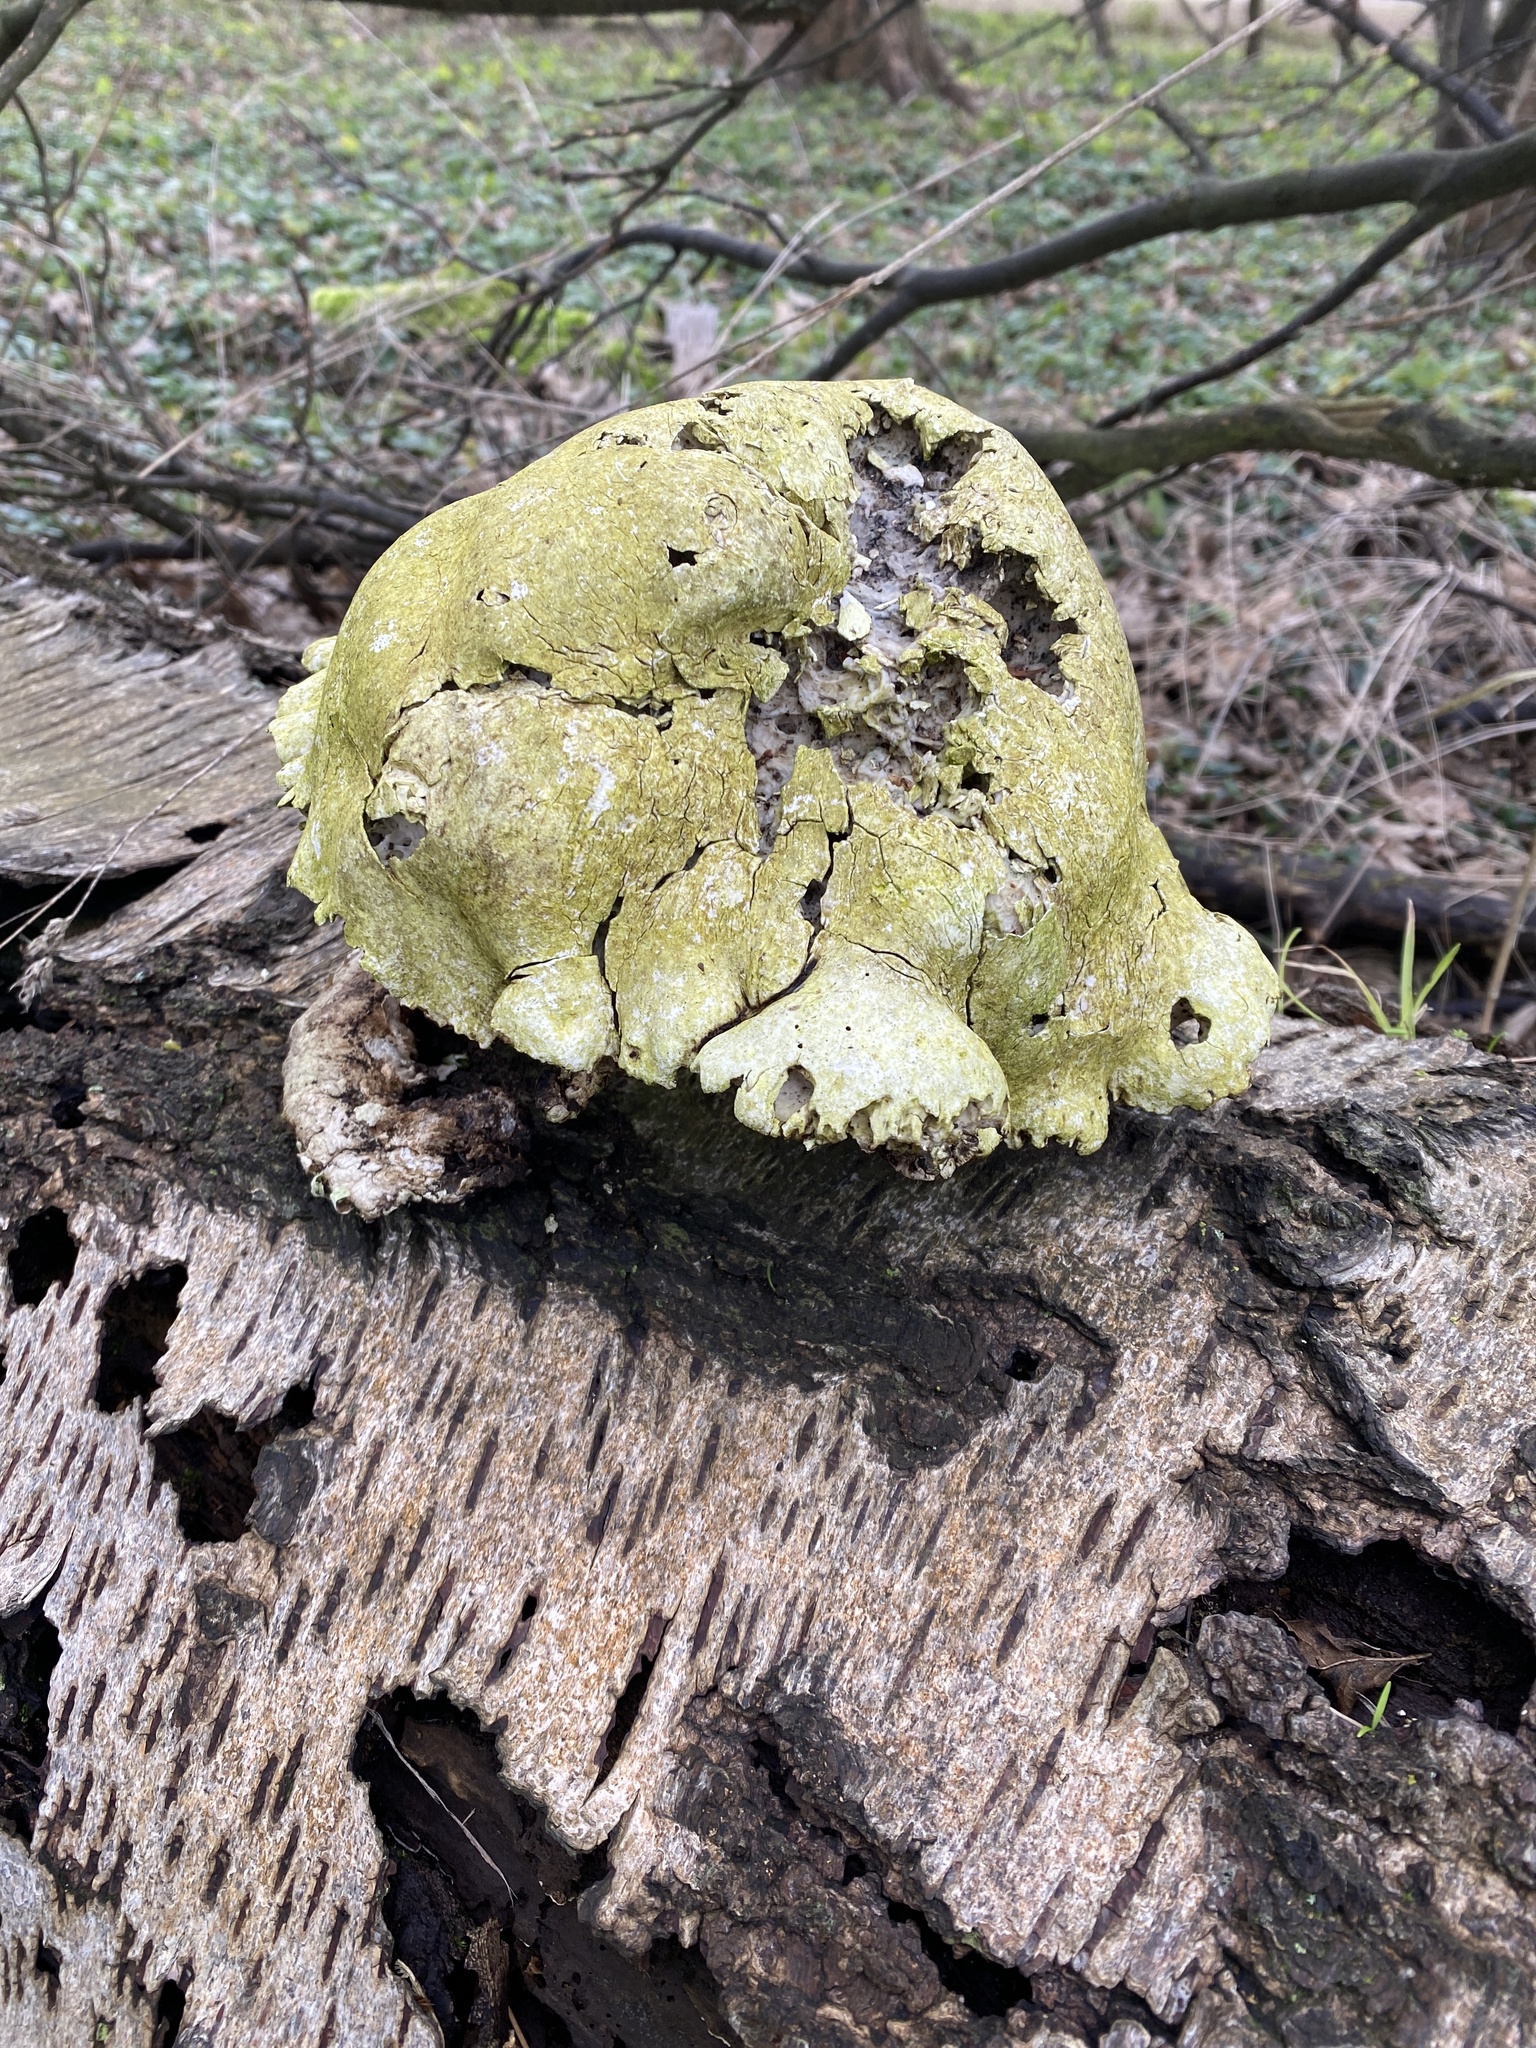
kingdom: Fungi
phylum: Basidiomycota
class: Agaricomycetes
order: Polyporales
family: Fomitopsidaceae
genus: Fomitopsis
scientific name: Fomitopsis betulina
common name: Birch polypore
